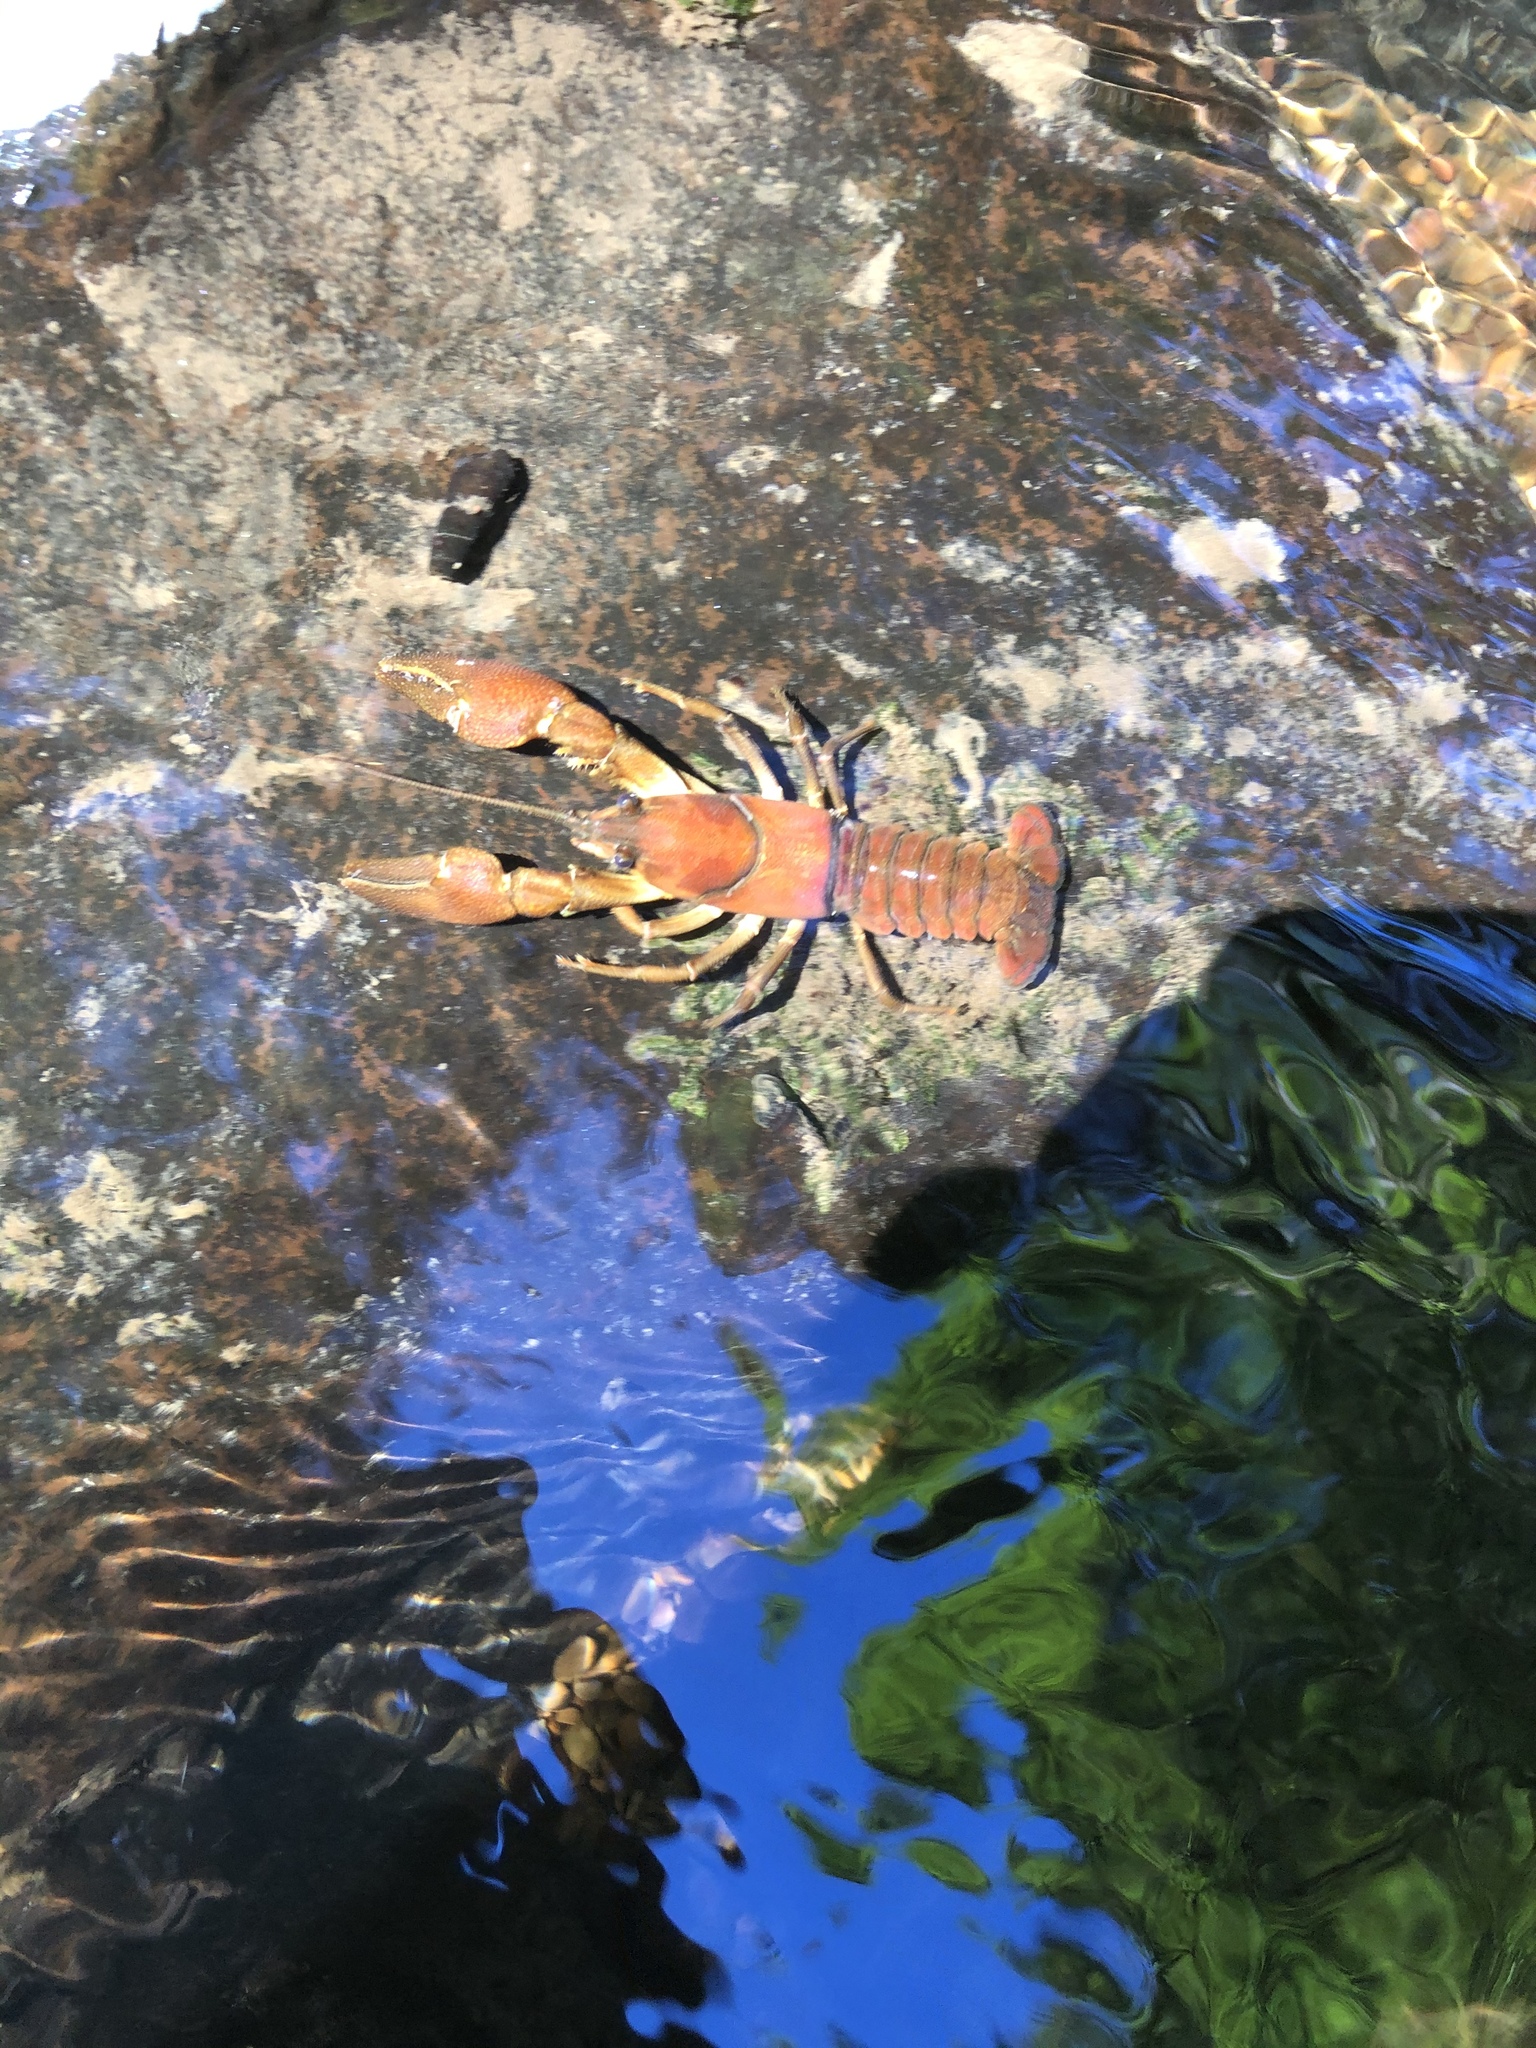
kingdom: Animalia
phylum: Arthropoda
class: Malacostraca
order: Decapoda
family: Astacidae
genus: Pacifastacus
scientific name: Pacifastacus leniusculus
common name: Signal crayfish
